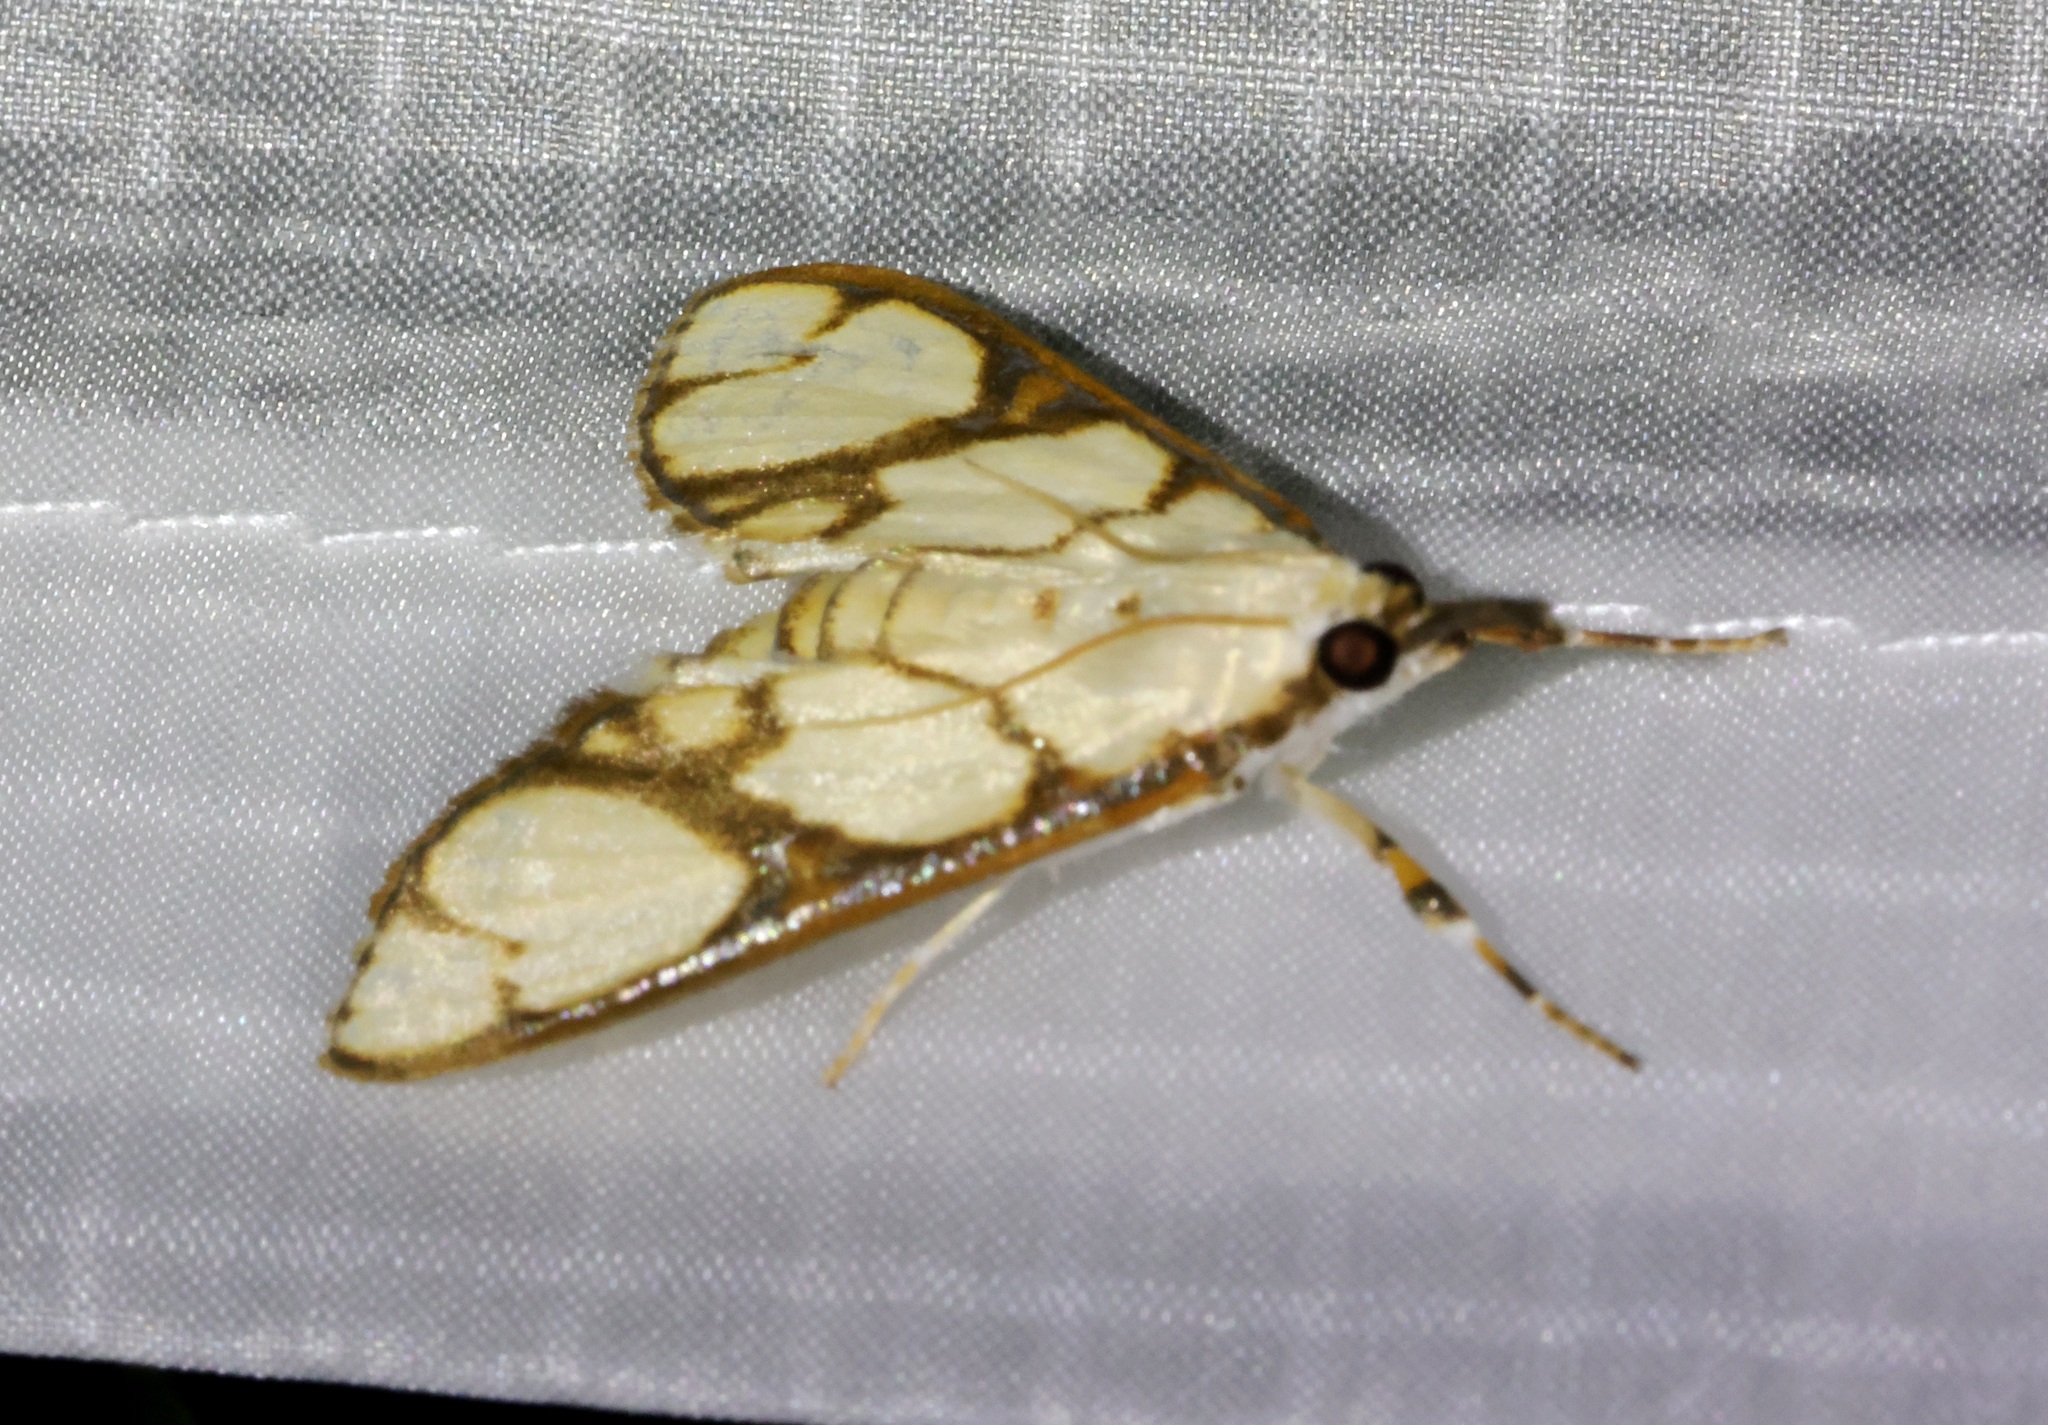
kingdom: Animalia
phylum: Arthropoda
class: Insecta
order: Lepidoptera
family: Crambidae
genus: Cirrhochrista
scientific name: Cirrhochrista fumipalpis
